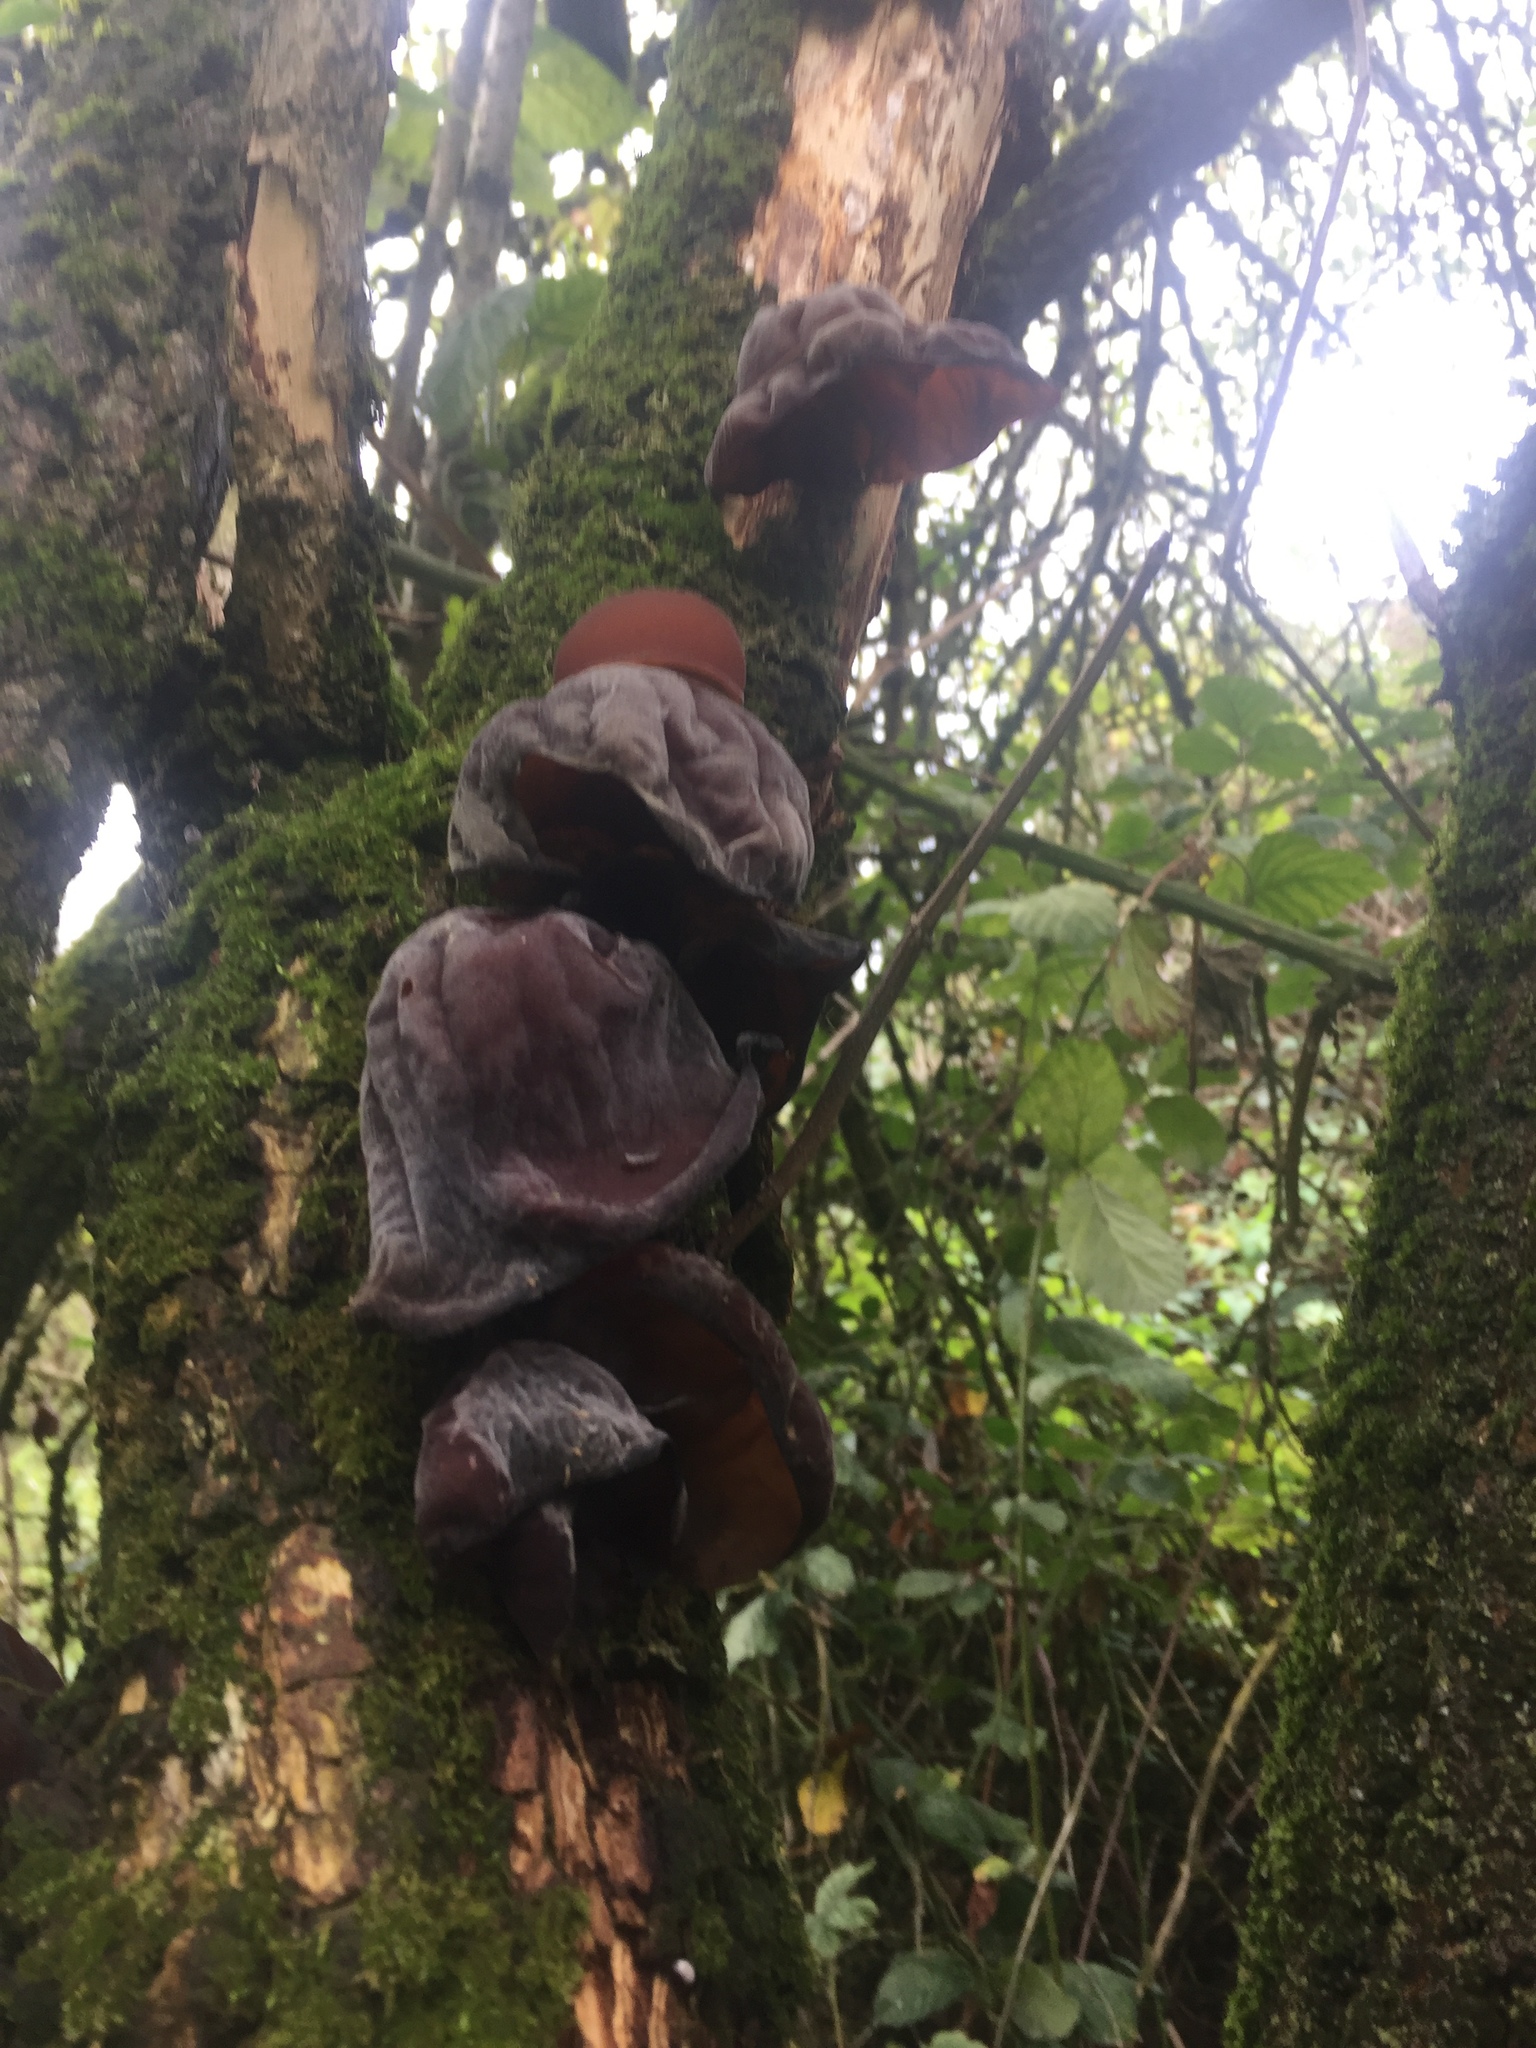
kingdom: Fungi
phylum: Basidiomycota
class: Agaricomycetes
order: Auriculariales
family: Auriculariaceae
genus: Auricularia
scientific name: Auricularia auricula-judae
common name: Jelly ear
